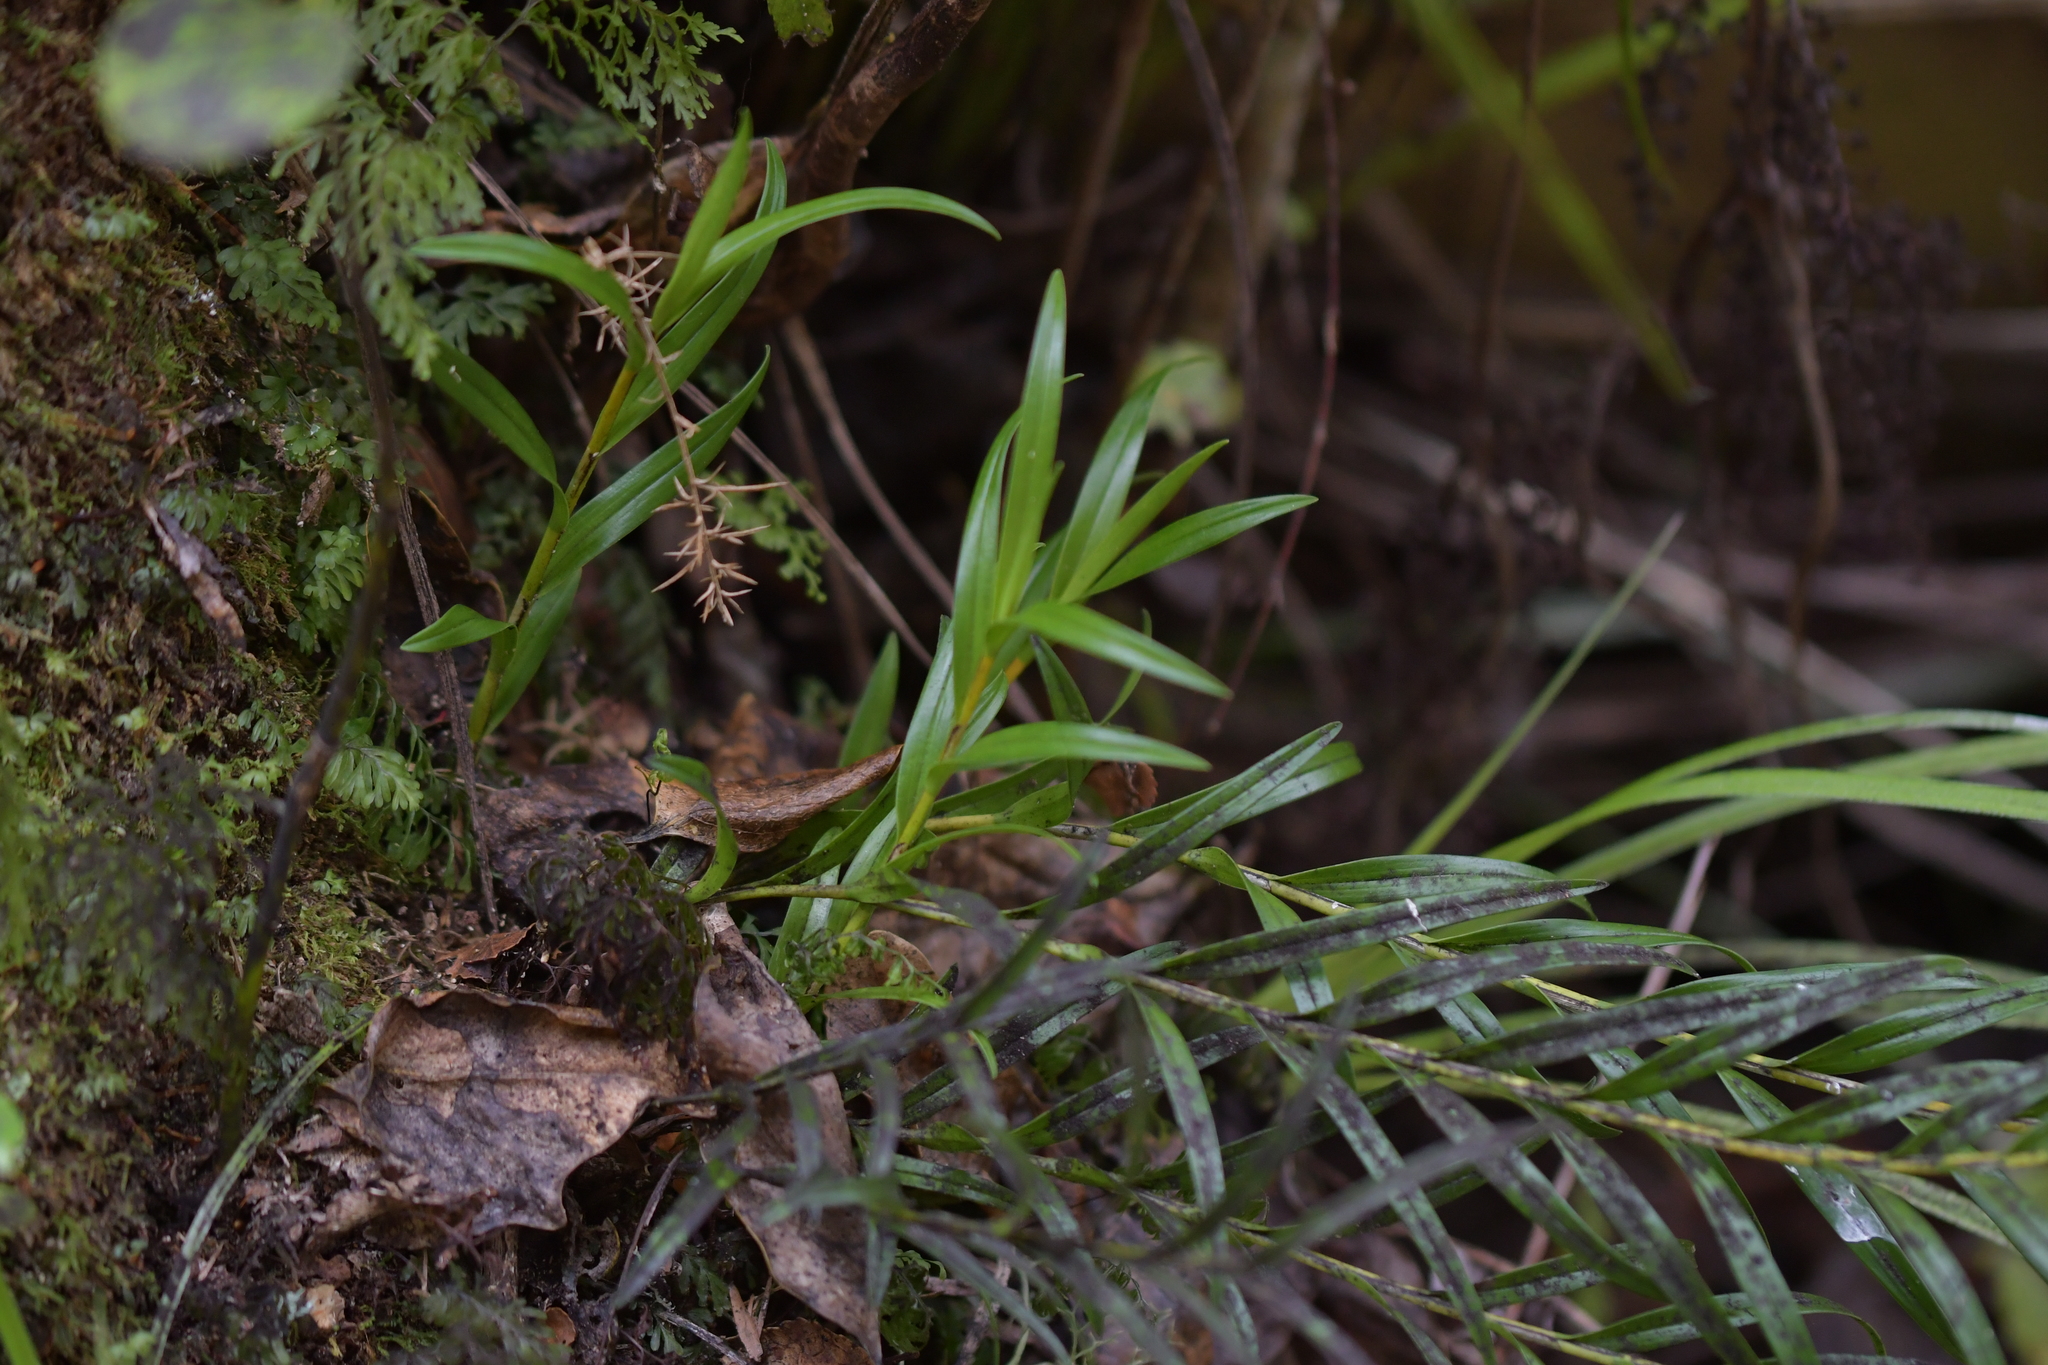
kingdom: Plantae
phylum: Tracheophyta
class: Liliopsida
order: Asparagales
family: Orchidaceae
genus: Earina
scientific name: Earina autumnalis
